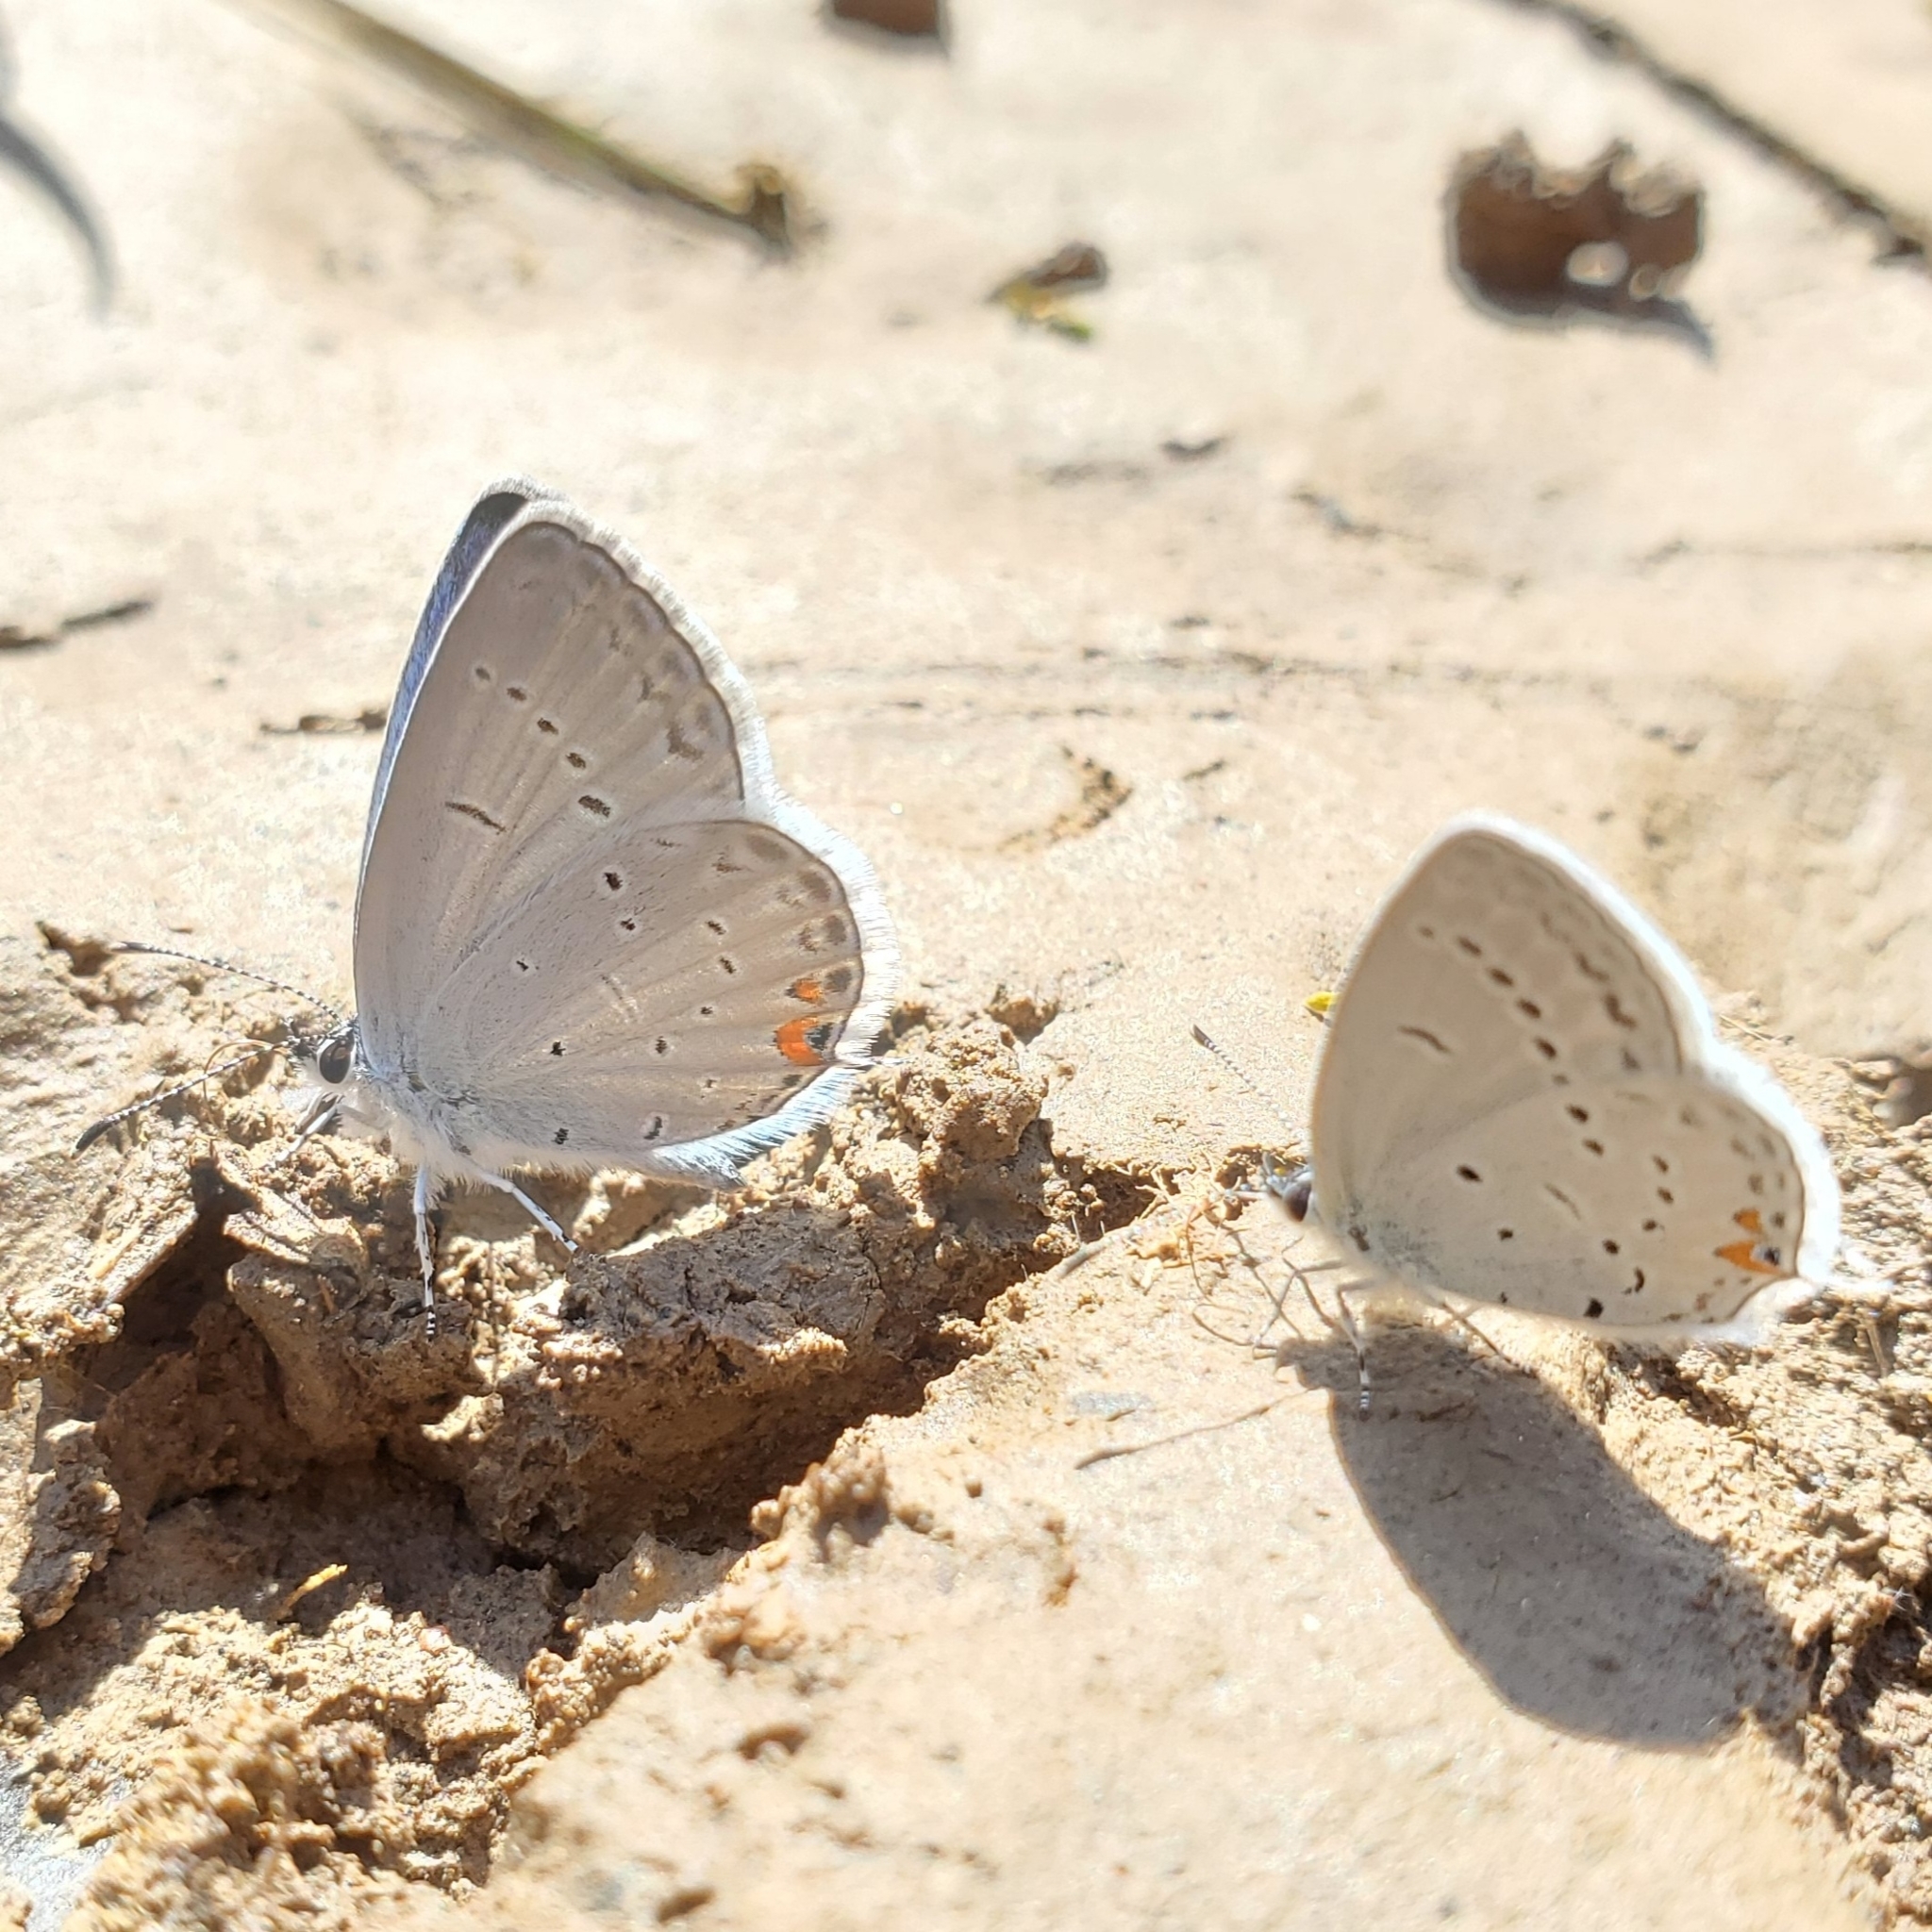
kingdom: Animalia
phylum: Arthropoda
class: Insecta
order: Lepidoptera
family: Lycaenidae
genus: Elkalyce
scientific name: Elkalyce comyntas
